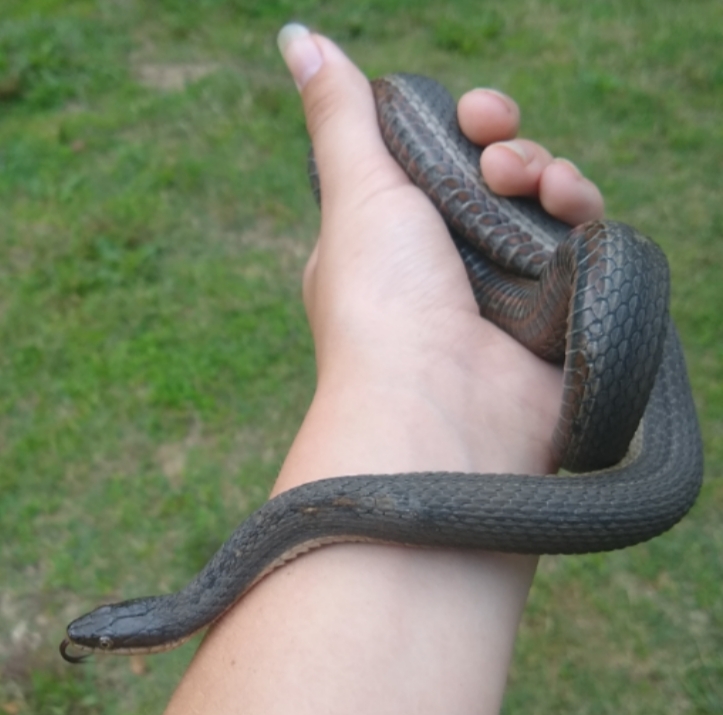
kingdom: Animalia
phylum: Chordata
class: Squamata
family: Colubridae
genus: Regina
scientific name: Regina septemvittata
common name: Queen snake
